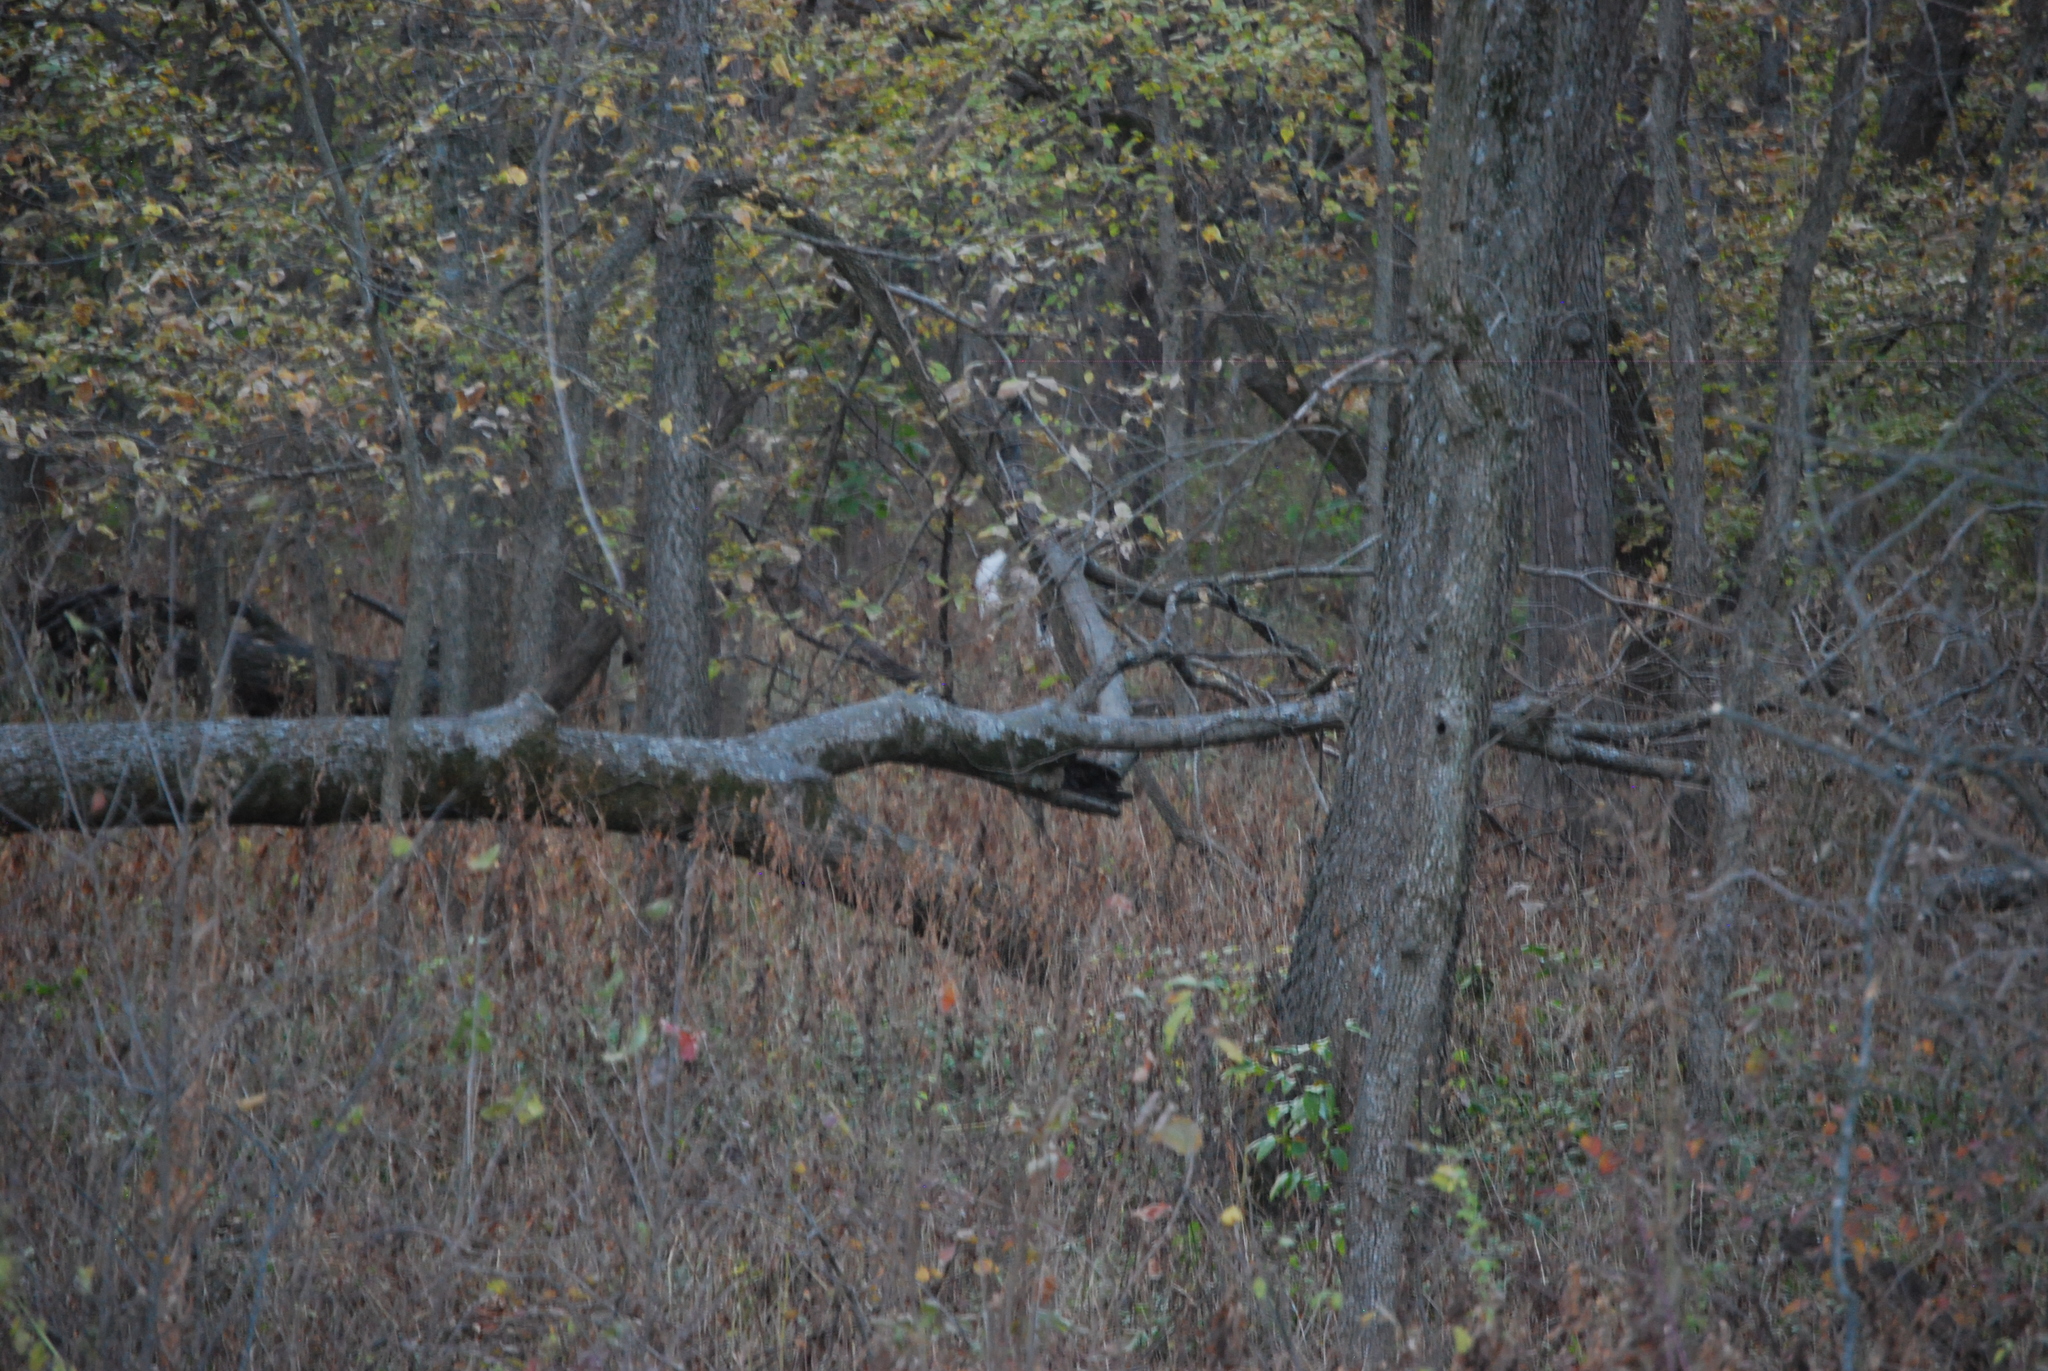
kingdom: Animalia
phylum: Chordata
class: Mammalia
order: Artiodactyla
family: Cervidae
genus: Odocoileus
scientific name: Odocoileus virginianus
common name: White-tailed deer
